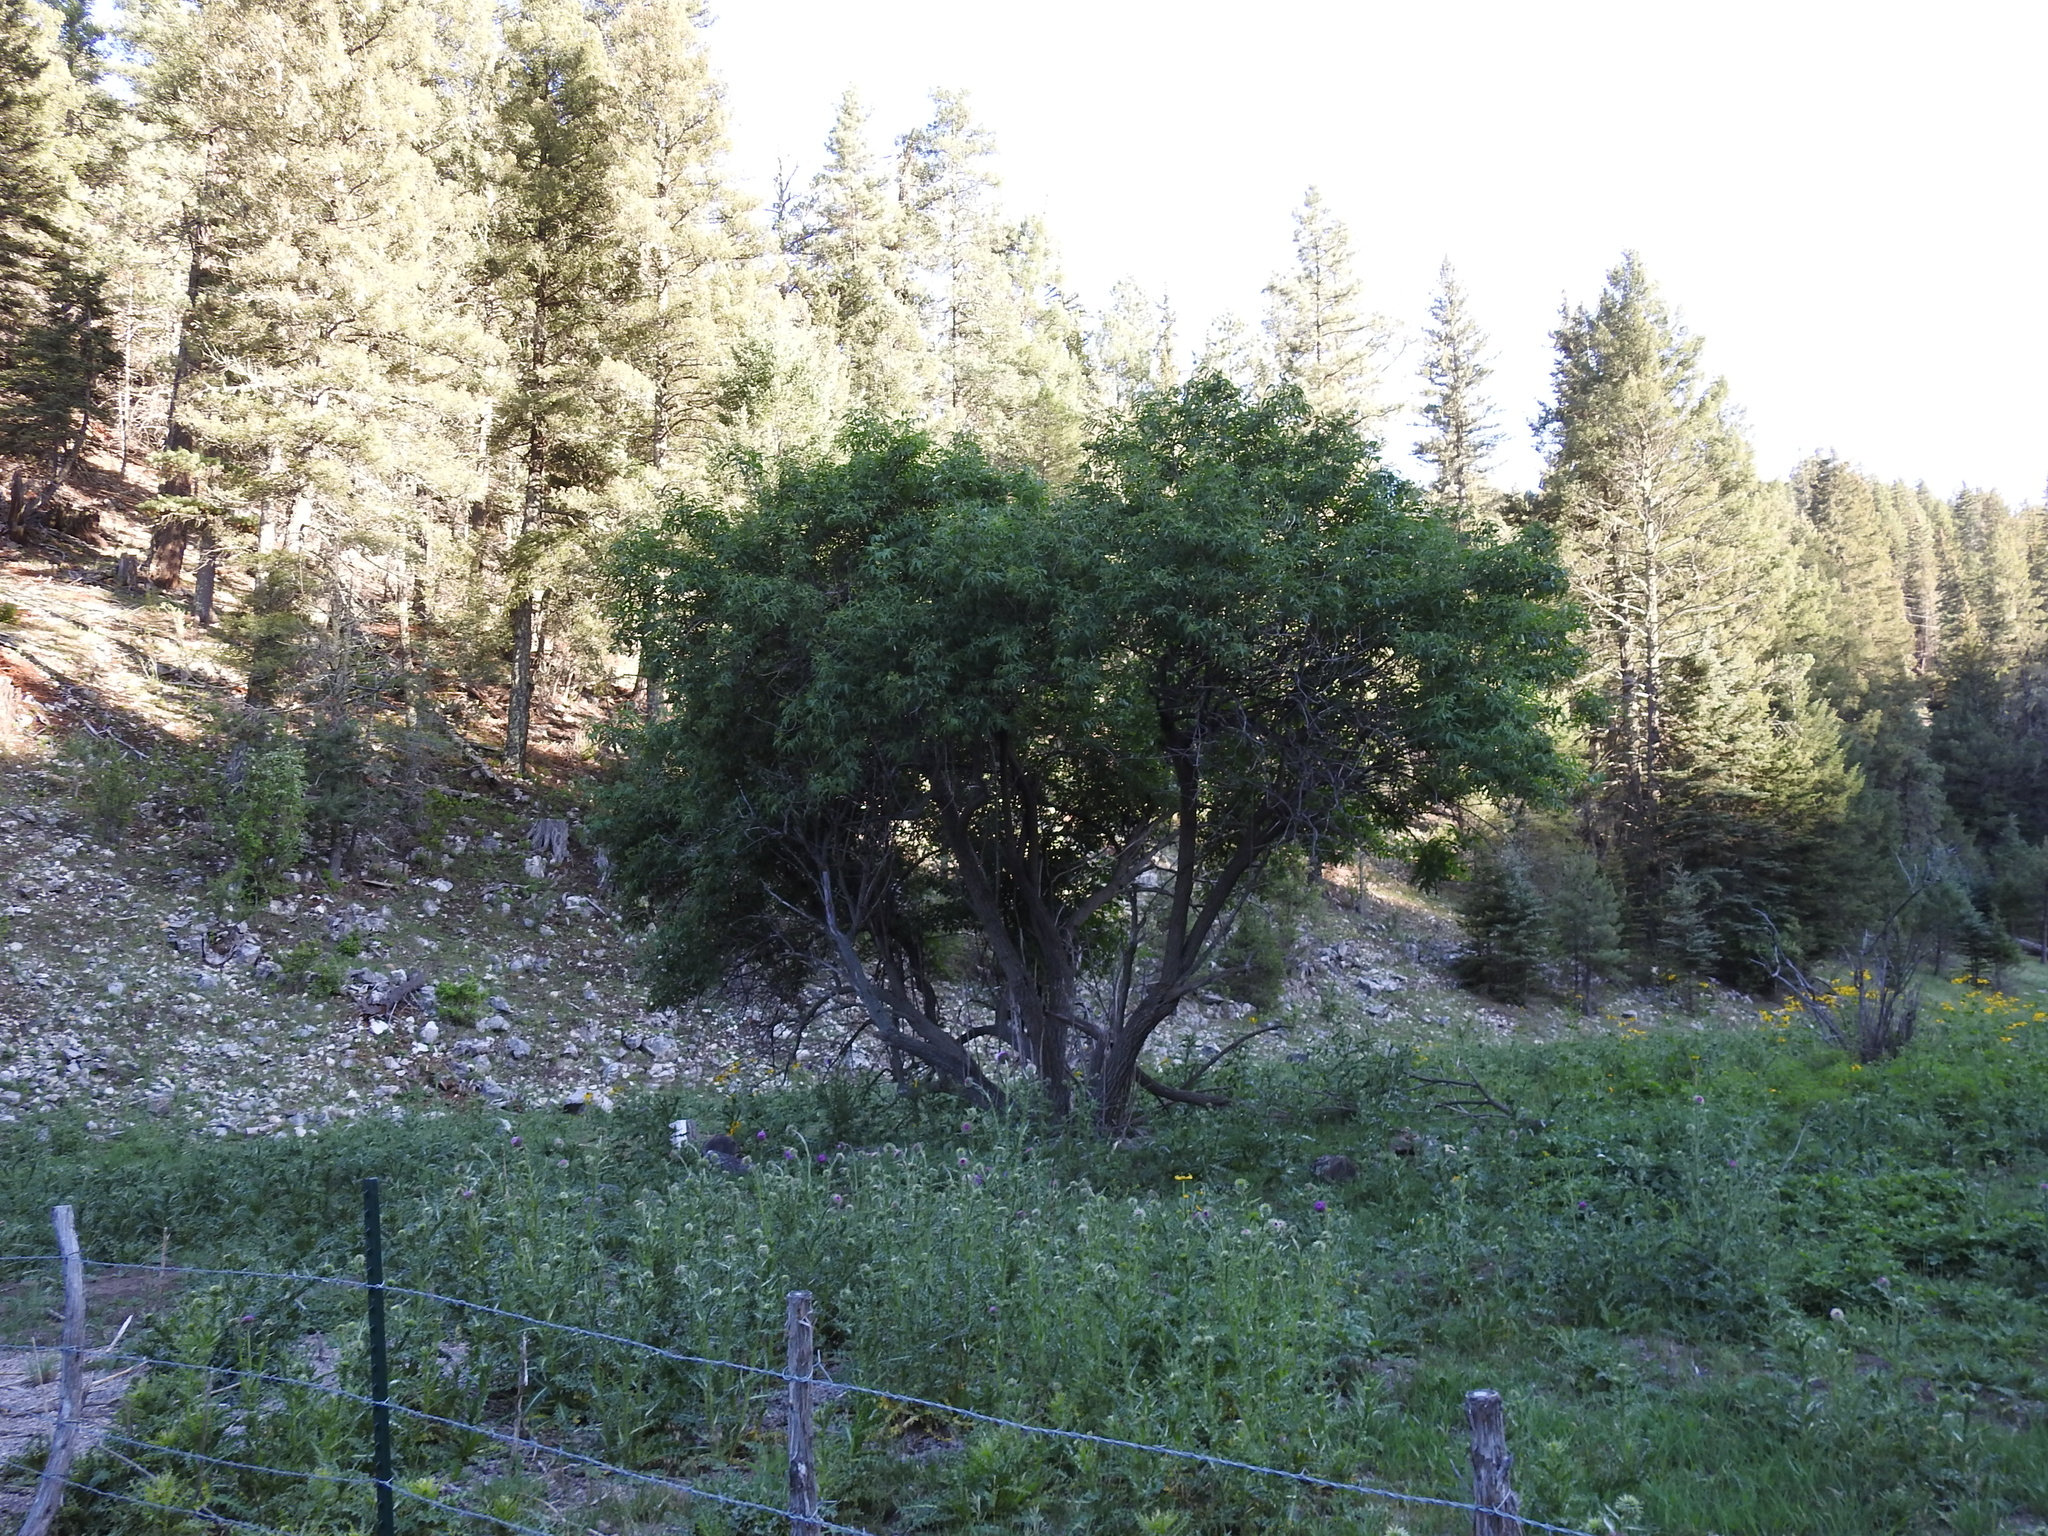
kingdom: Plantae
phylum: Tracheophyta
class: Magnoliopsida
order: Dipsacales
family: Viburnaceae
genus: Sambucus
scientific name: Sambucus cerulea
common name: Blue elder
